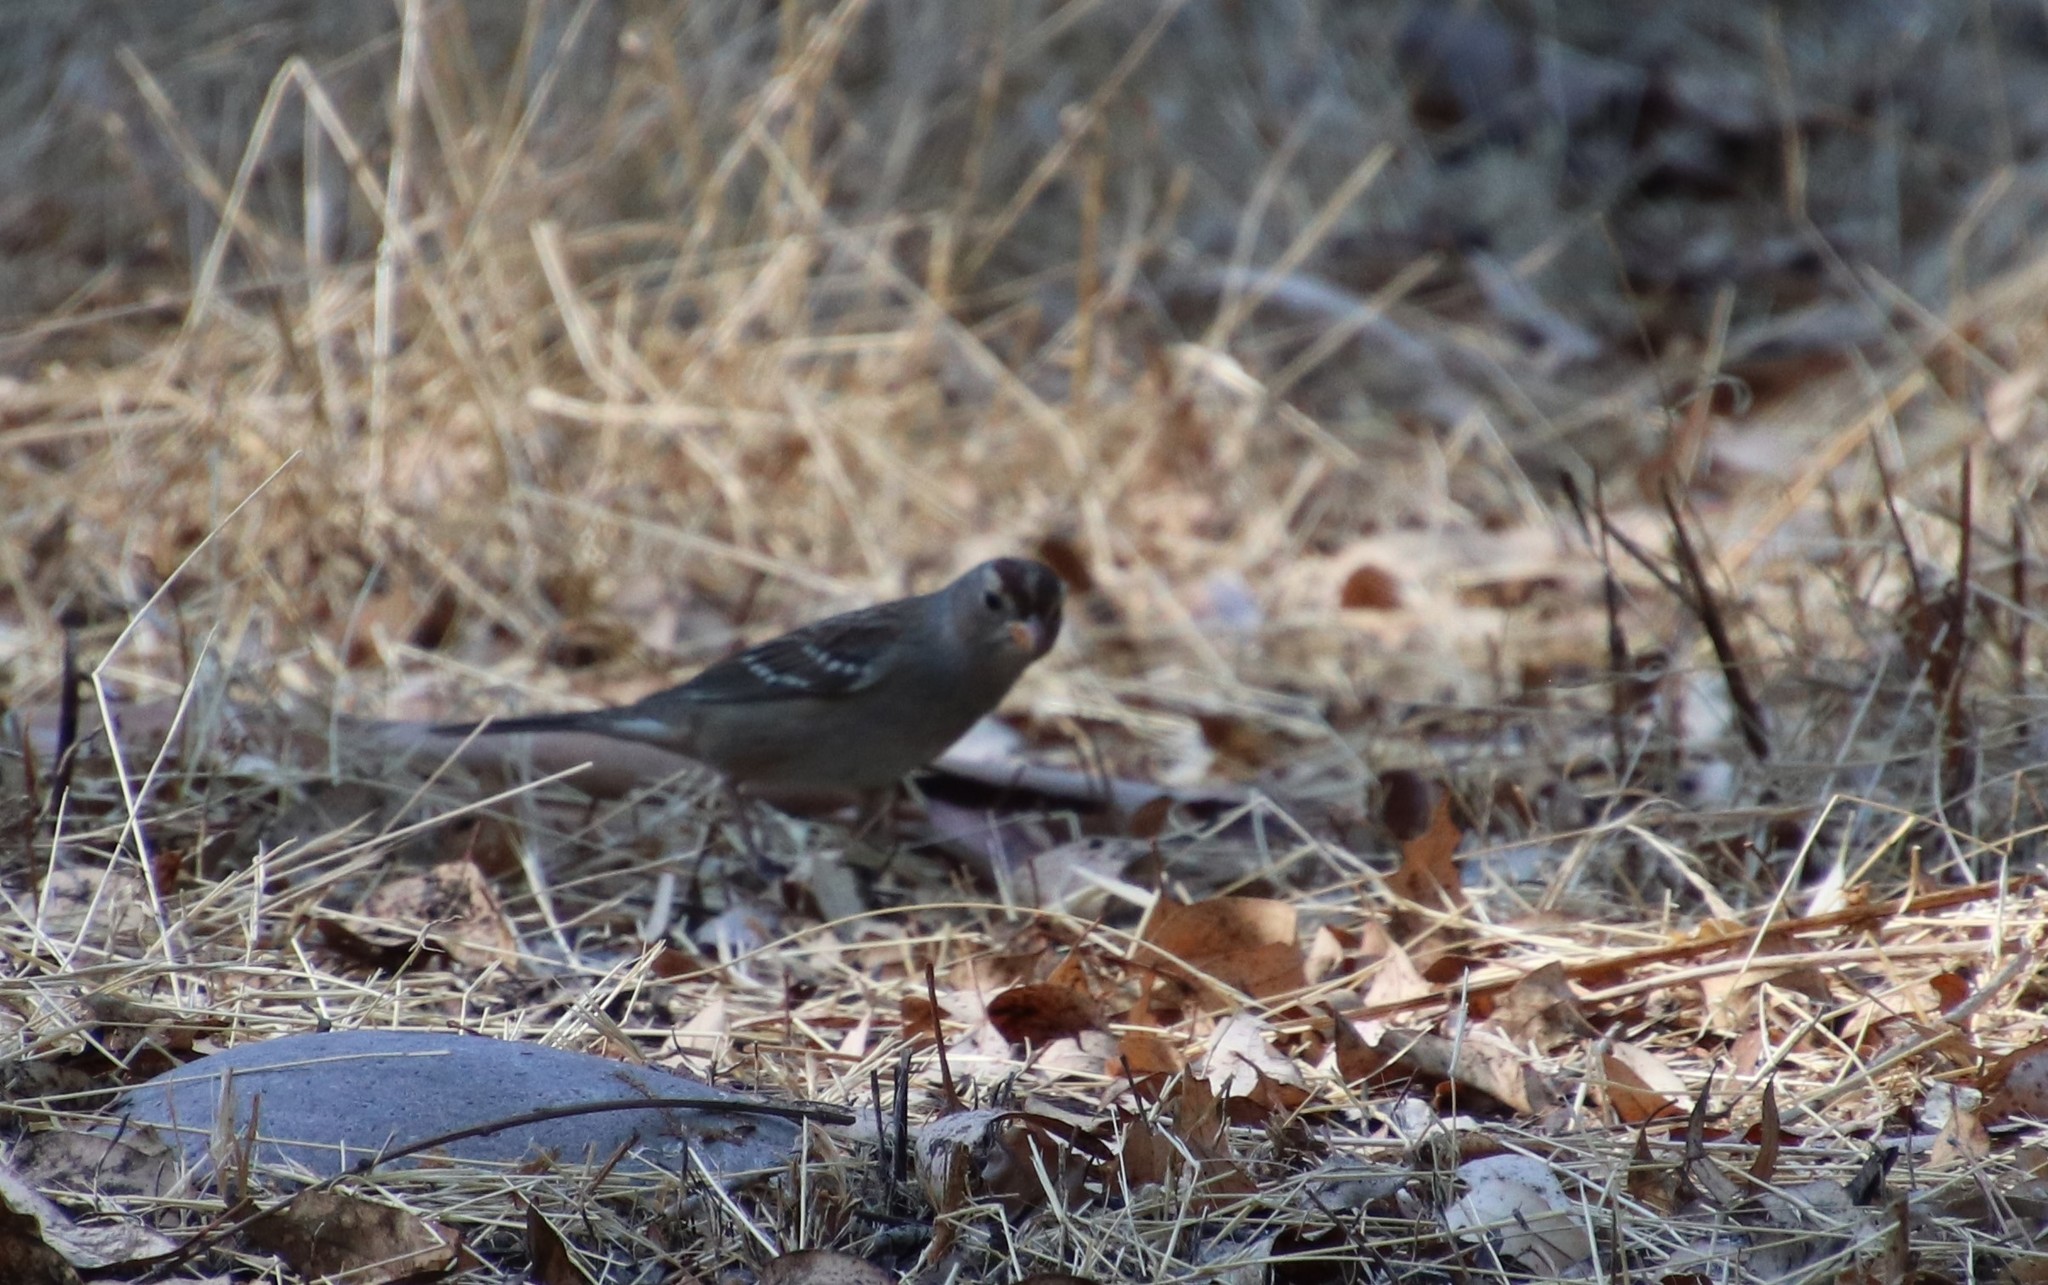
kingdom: Animalia
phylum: Chordata
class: Aves
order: Passeriformes
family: Passerellidae
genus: Zonotrichia
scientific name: Zonotrichia leucophrys
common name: White-crowned sparrow
